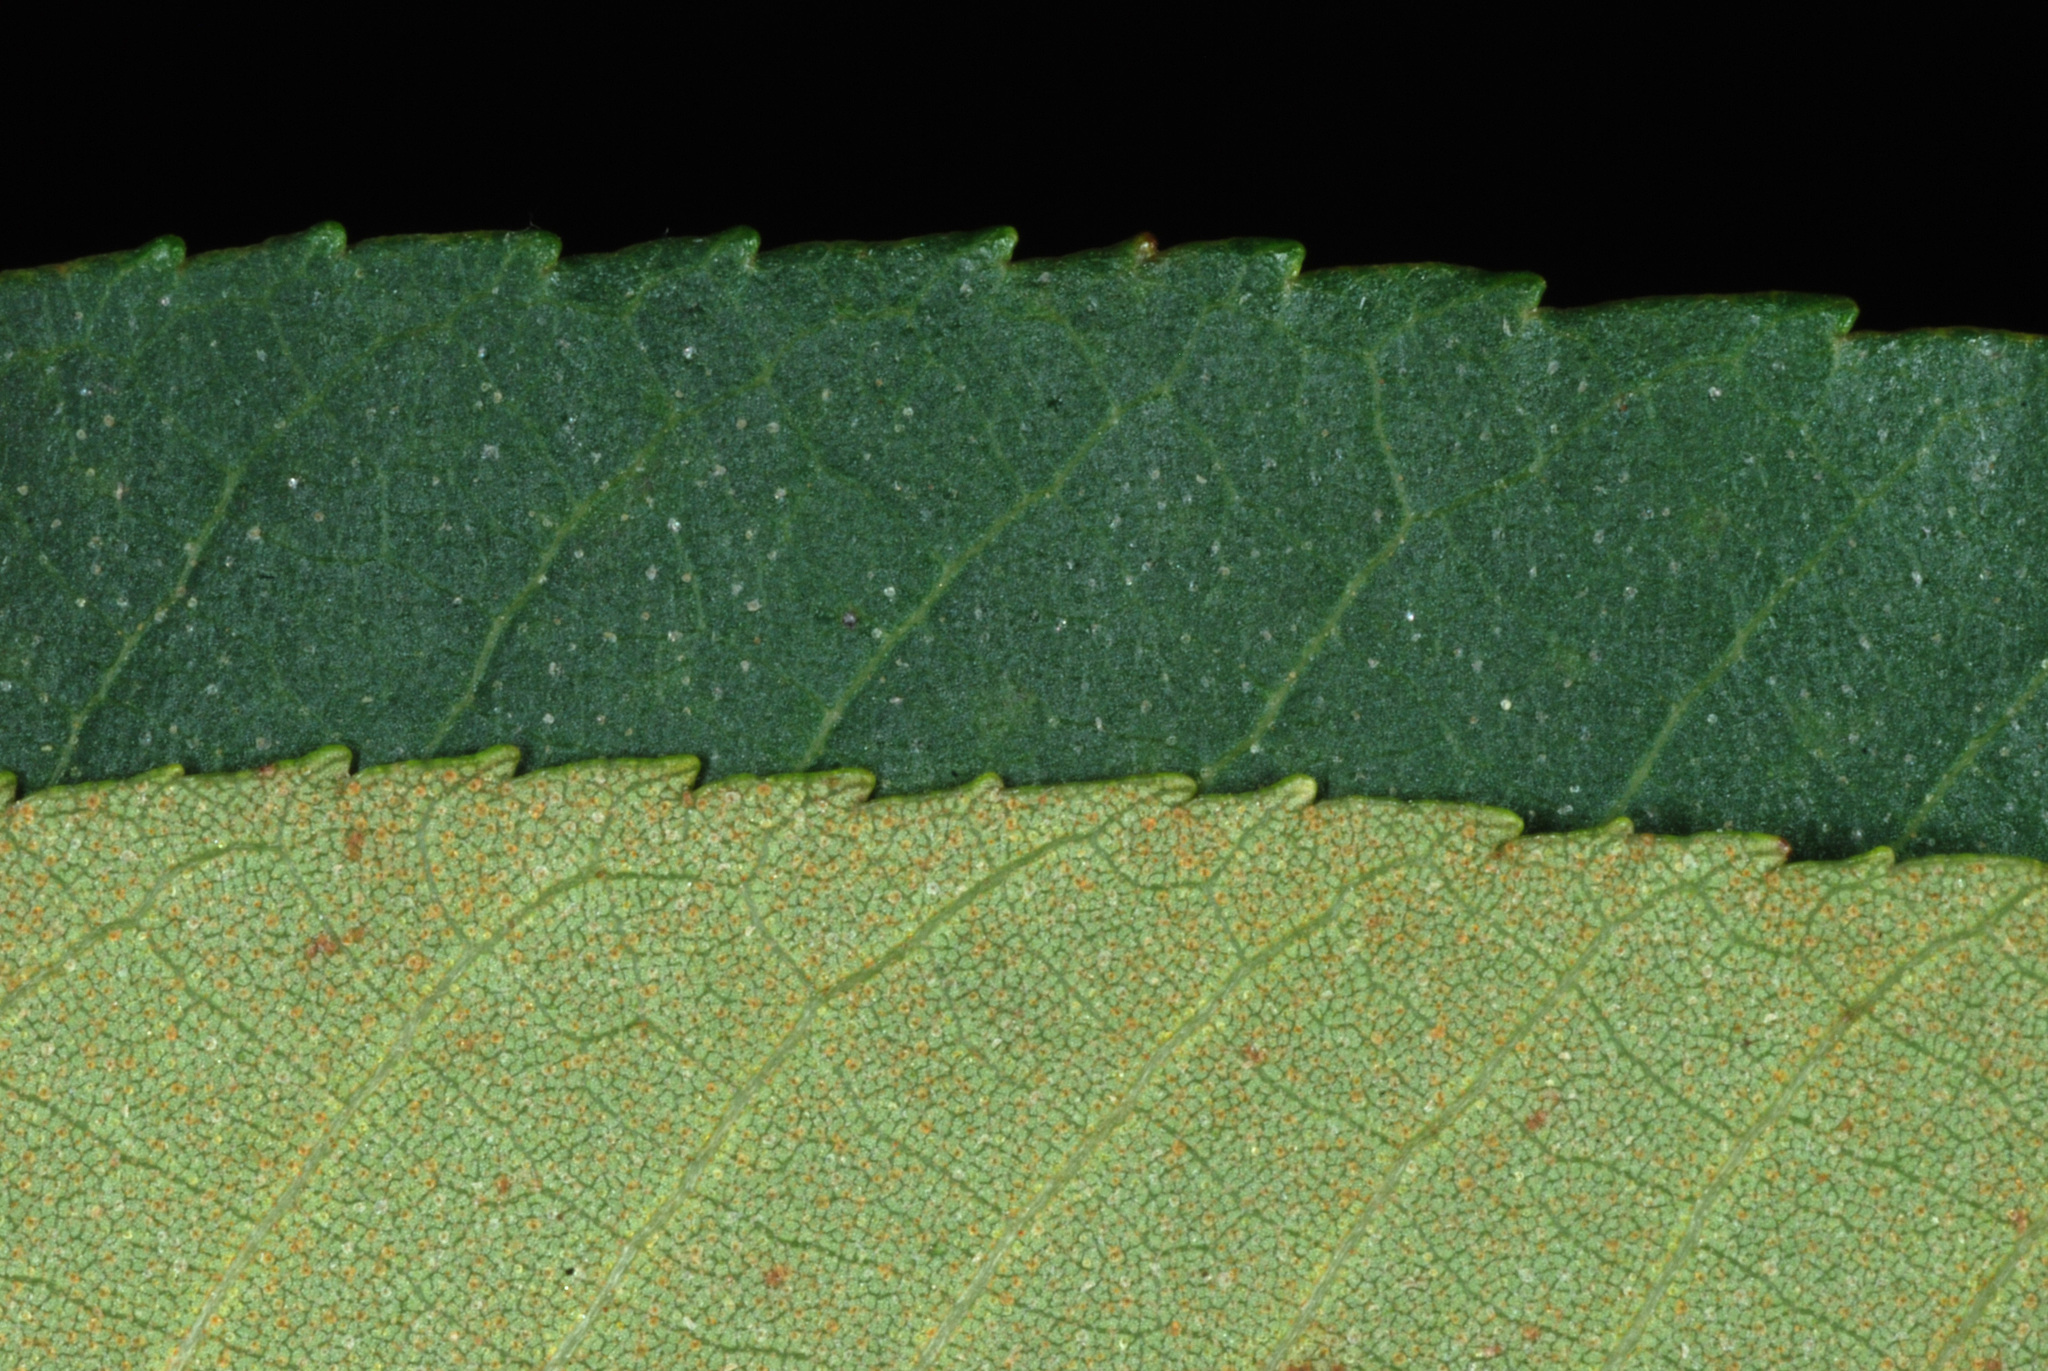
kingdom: Plantae
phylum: Tracheophyta
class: Magnoliopsida
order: Fagales
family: Juglandaceae
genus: Carya
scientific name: Carya pallida
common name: Sand hickory
